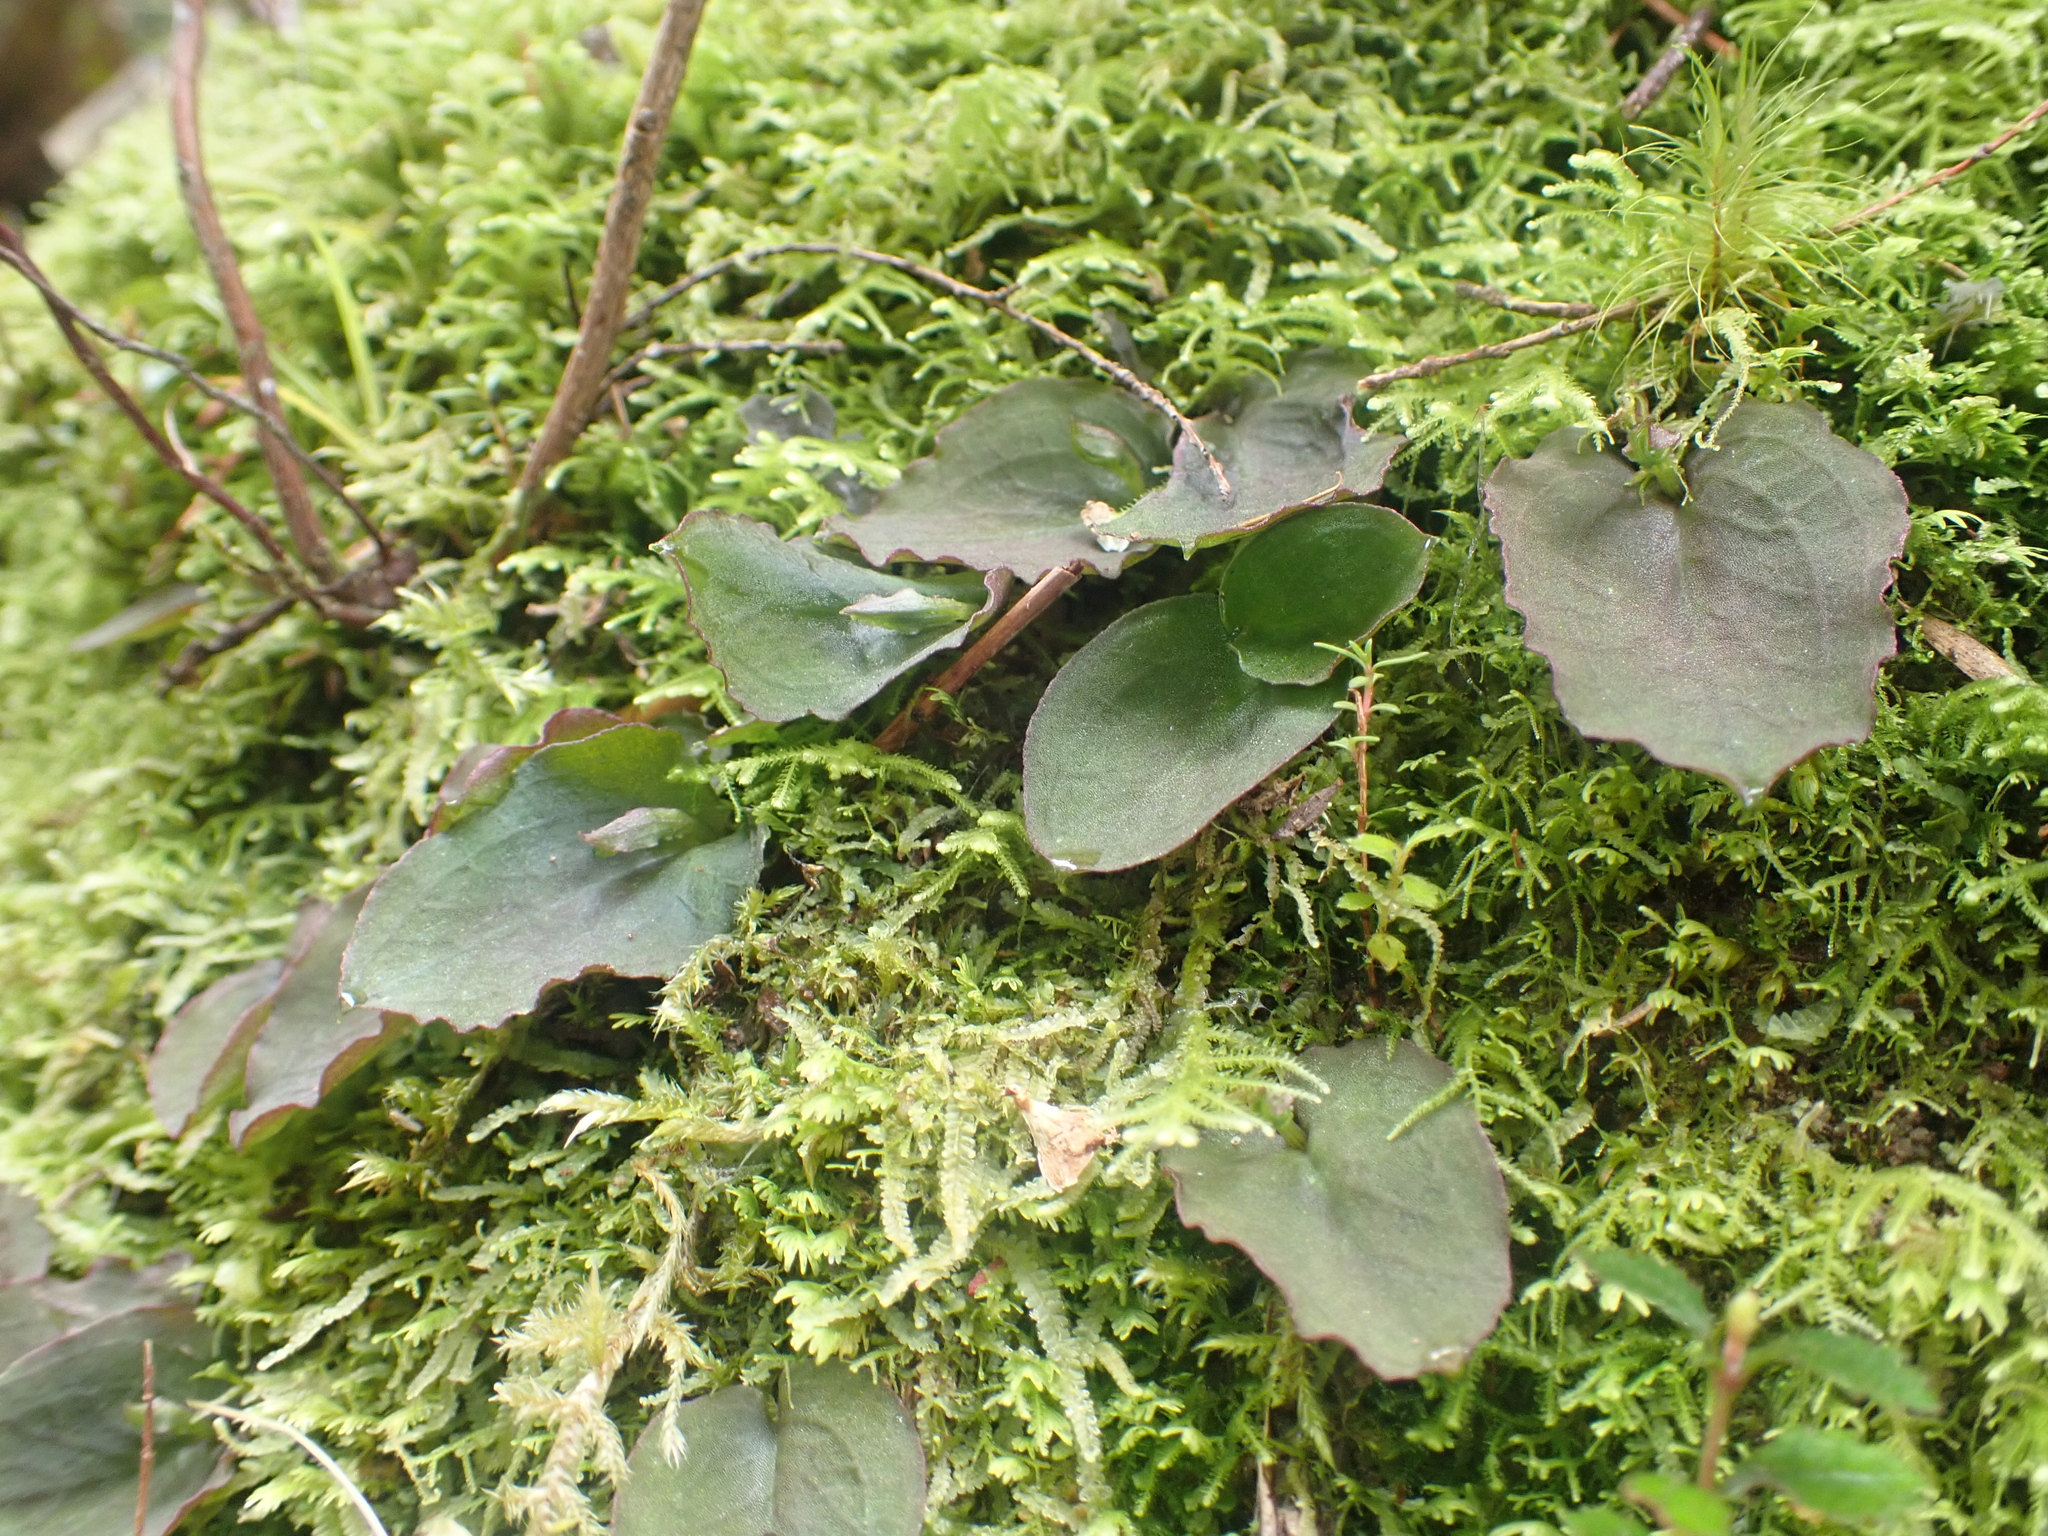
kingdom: Plantae
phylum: Tracheophyta
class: Liliopsida
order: Asparagales
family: Orchidaceae
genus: Corybas
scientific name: Corybas oblongus
